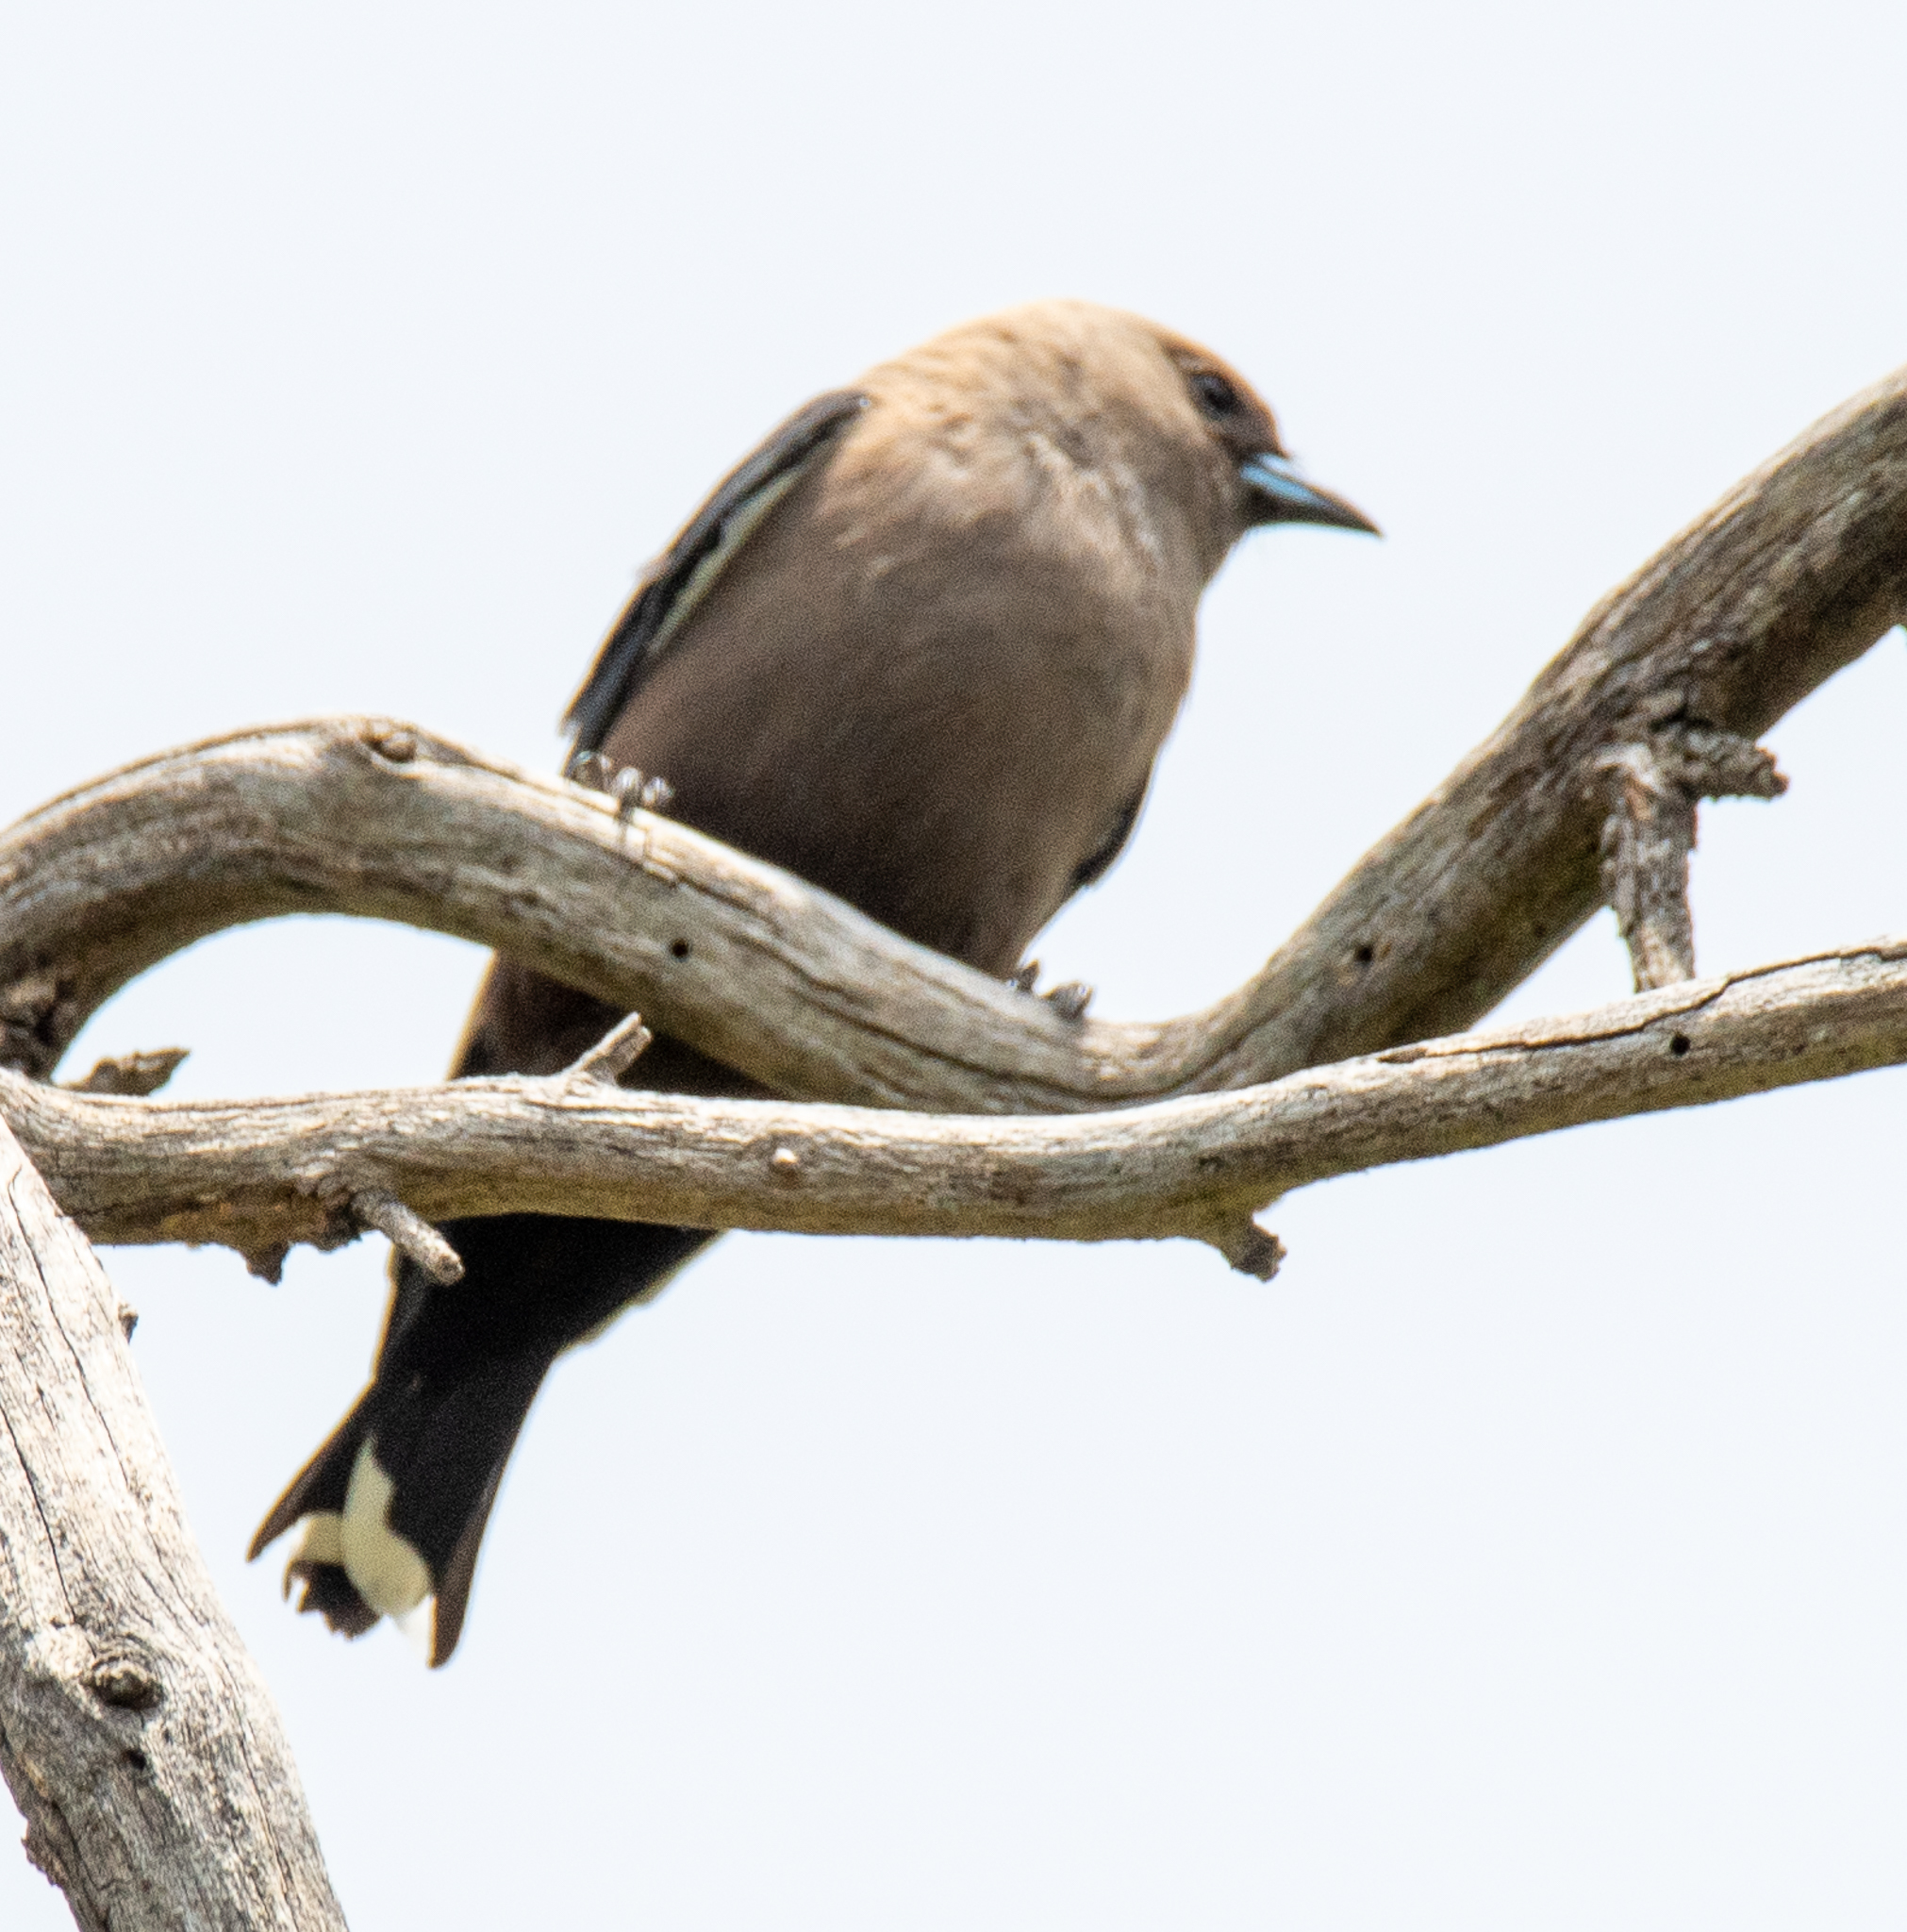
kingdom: Animalia
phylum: Chordata
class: Aves
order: Passeriformes
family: Artamidae
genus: Artamus
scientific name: Artamus cyanopterus
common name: Dusky woodswallow
